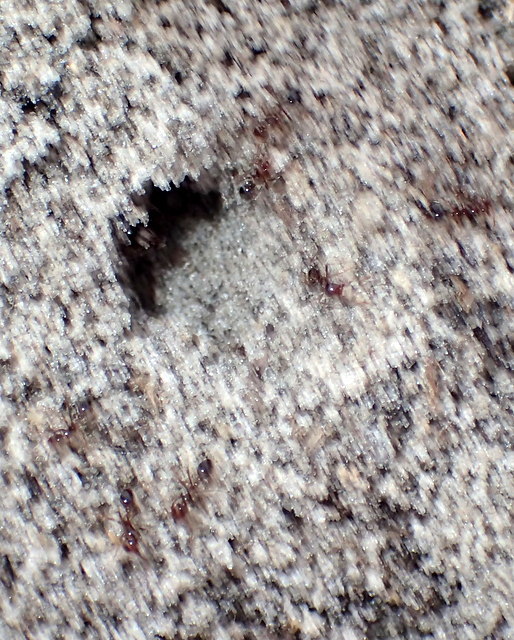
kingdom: Animalia
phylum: Arthropoda
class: Insecta
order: Hymenoptera
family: Formicidae
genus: Solenopsis
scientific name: Solenopsis invicta
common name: Red imported fire ant
